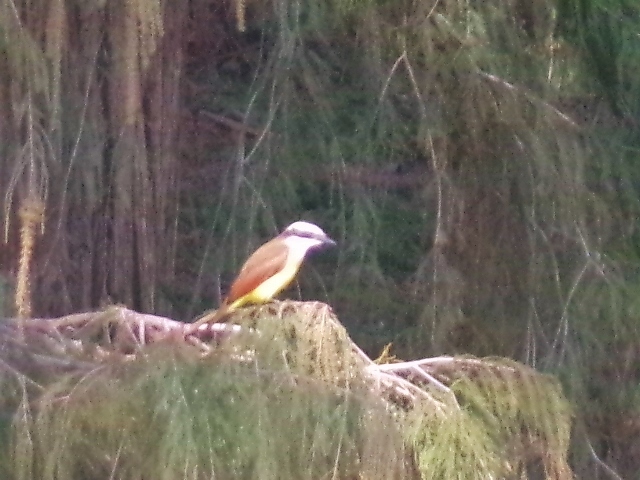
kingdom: Animalia
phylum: Chordata
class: Aves
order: Passeriformes
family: Tyrannidae
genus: Pitangus
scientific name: Pitangus sulphuratus
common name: Great kiskadee
